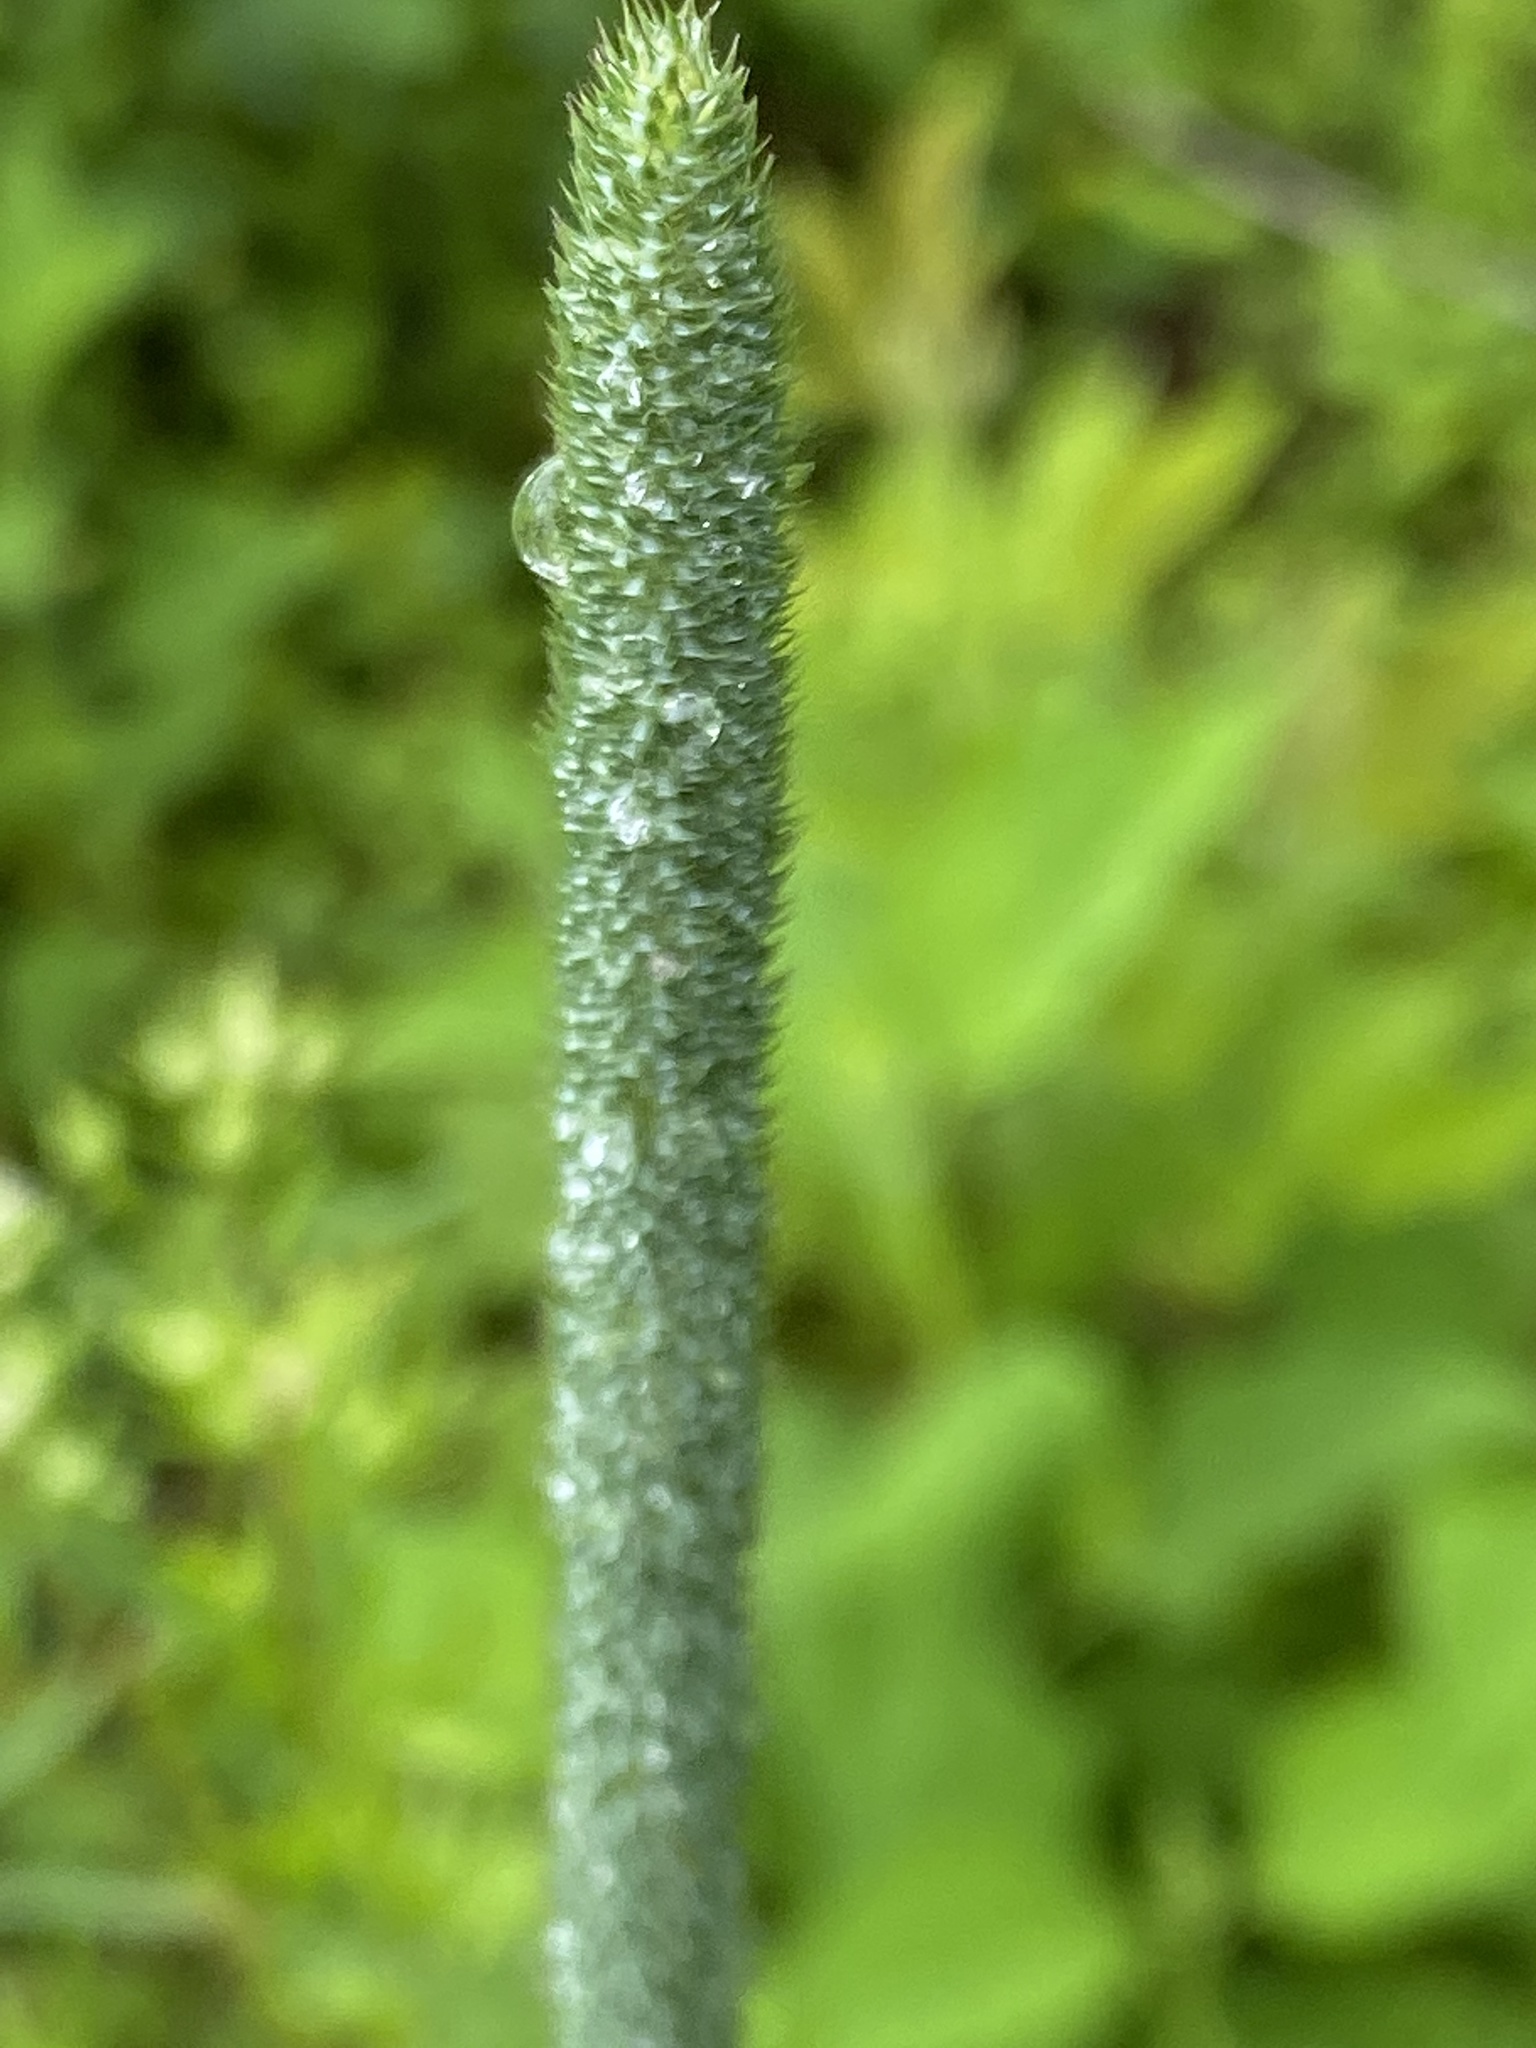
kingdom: Plantae
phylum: Tracheophyta
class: Liliopsida
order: Poales
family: Poaceae
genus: Phleum
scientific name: Phleum pratense
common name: Timothy grass
